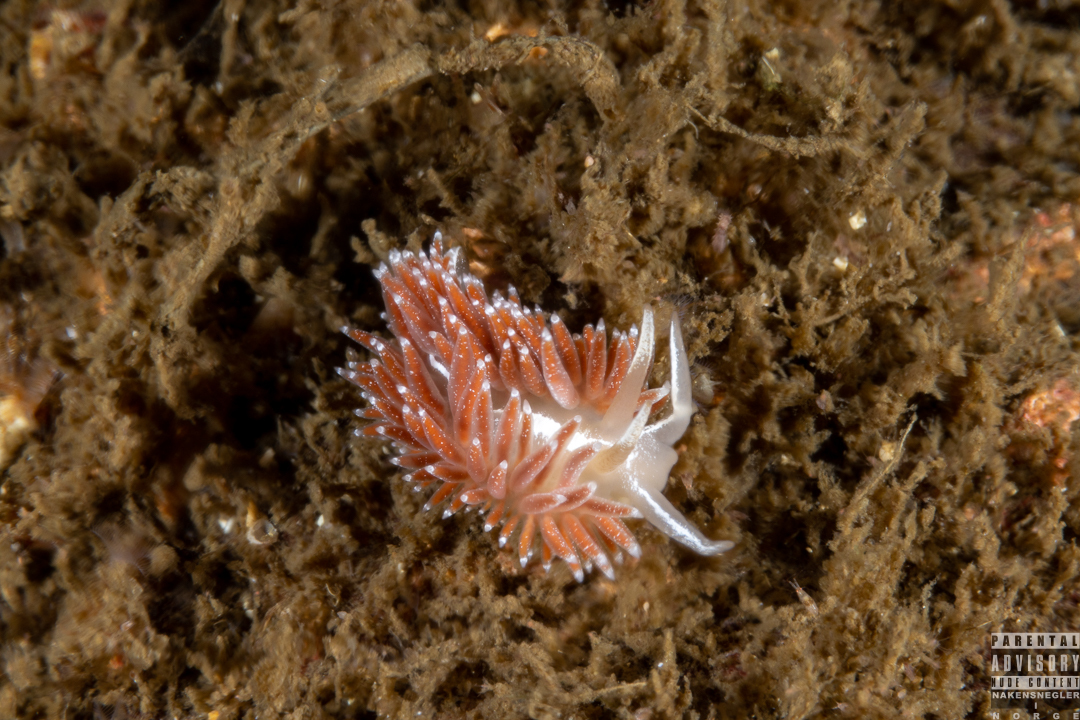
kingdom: Animalia
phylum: Mollusca
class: Gastropoda
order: Nudibranchia
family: Coryphellidae
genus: Coryphella
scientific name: Coryphella monicae
